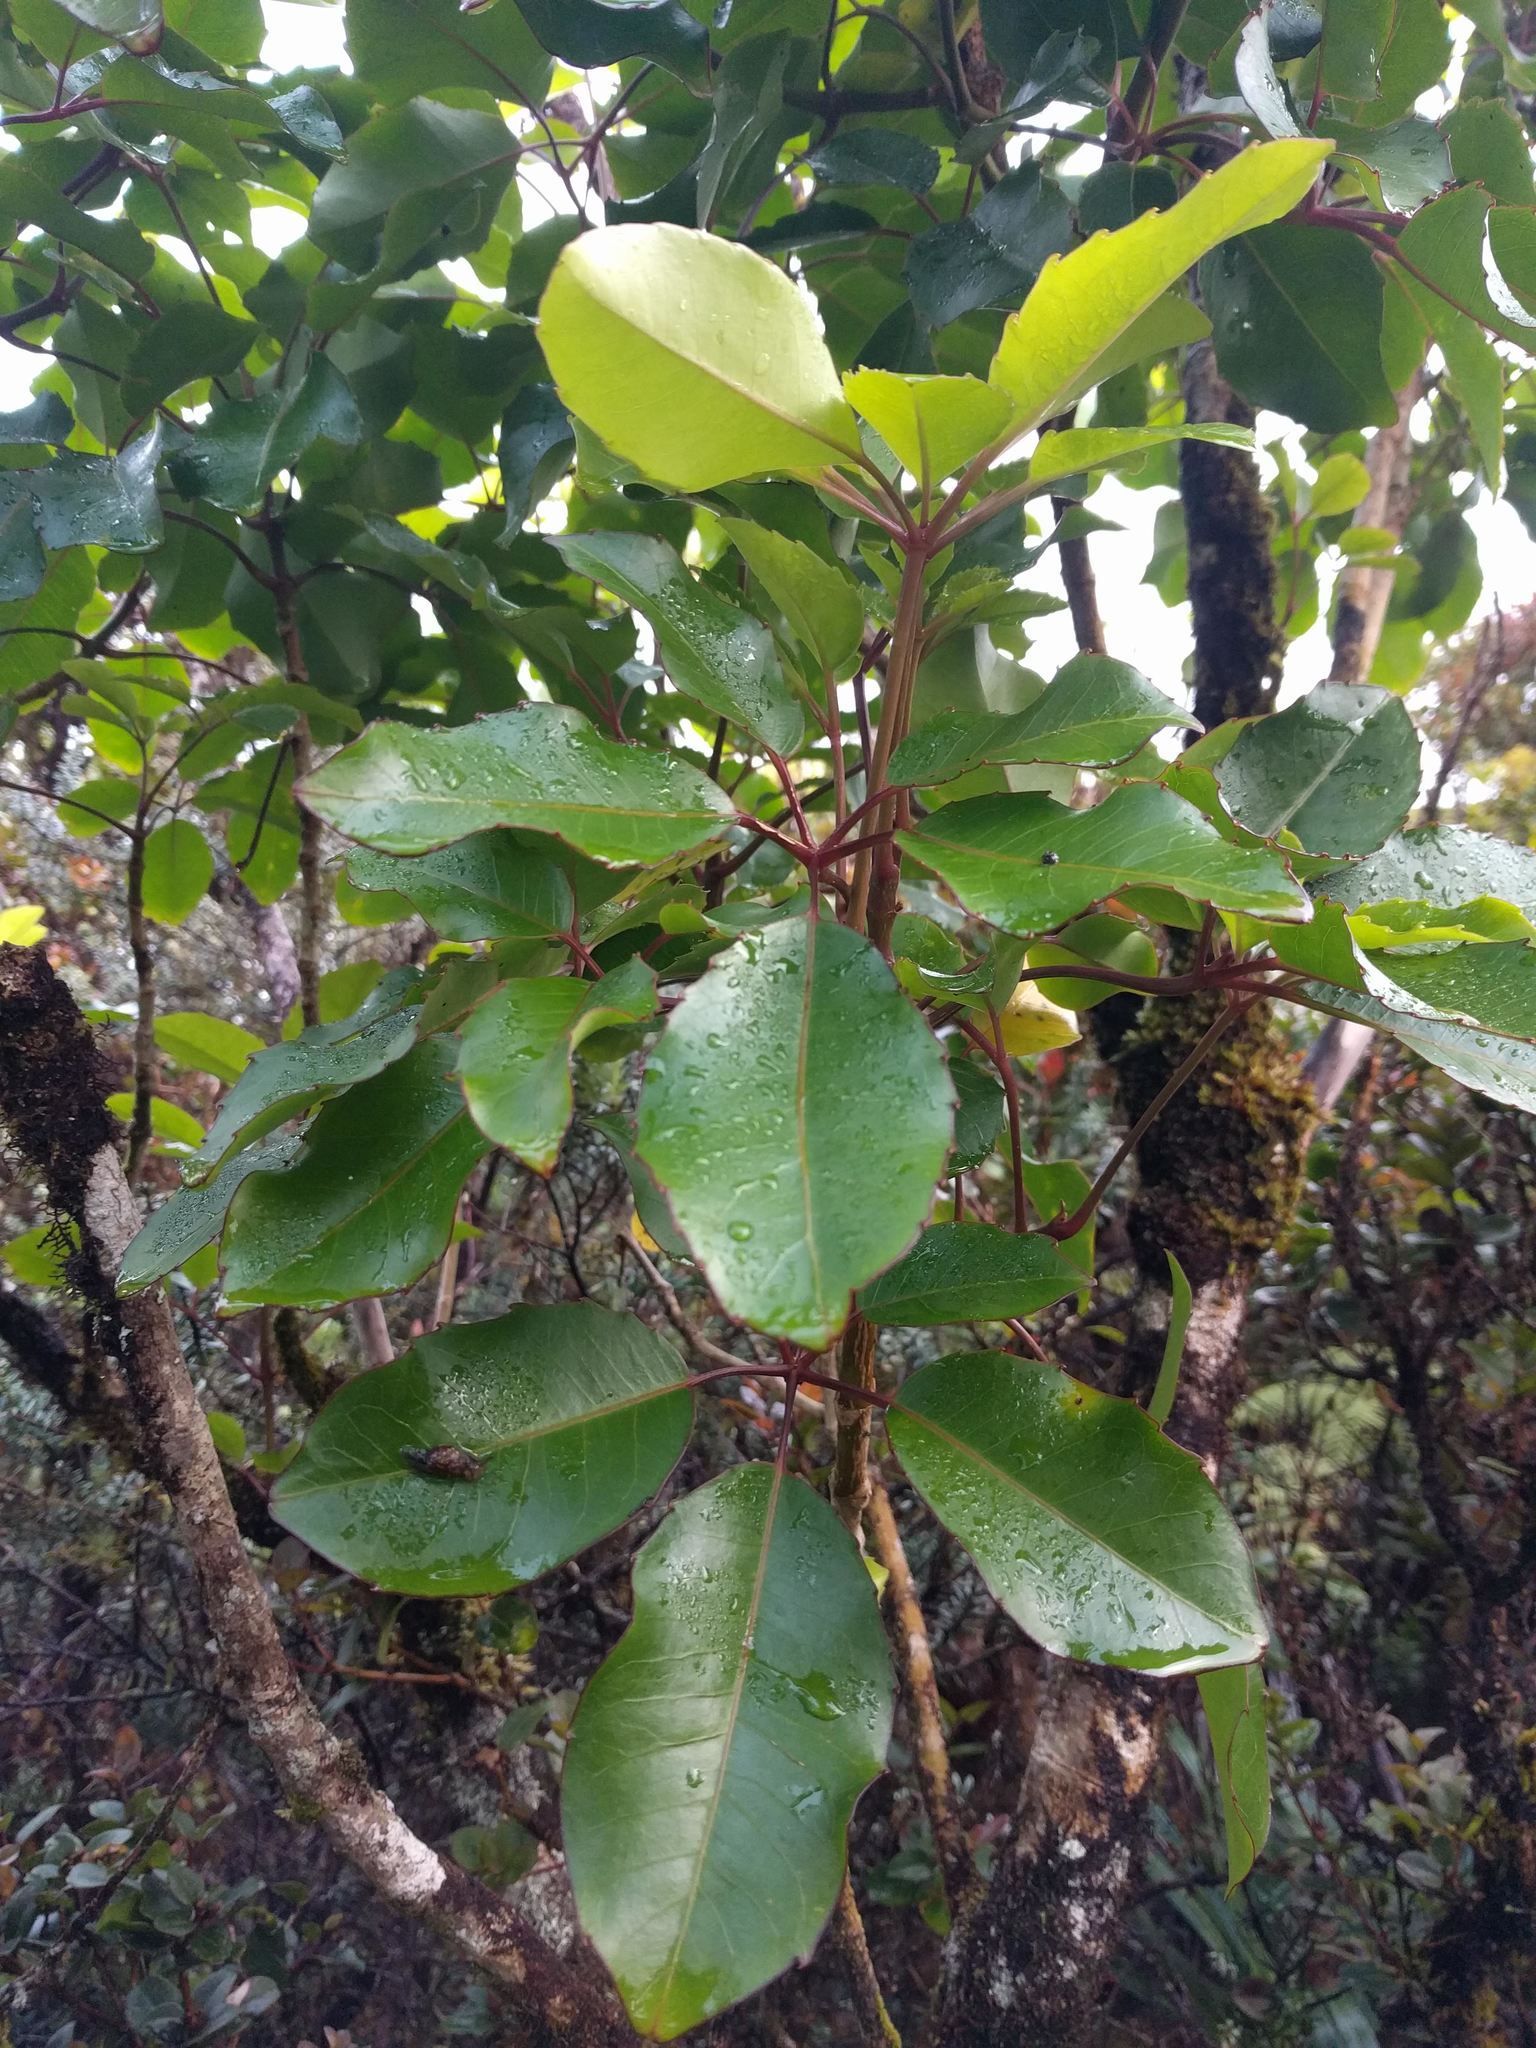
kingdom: Plantae
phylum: Tracheophyta
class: Magnoliopsida
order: Apiales
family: Araliaceae
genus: Cheirodendron
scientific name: Cheirodendron trigynum
